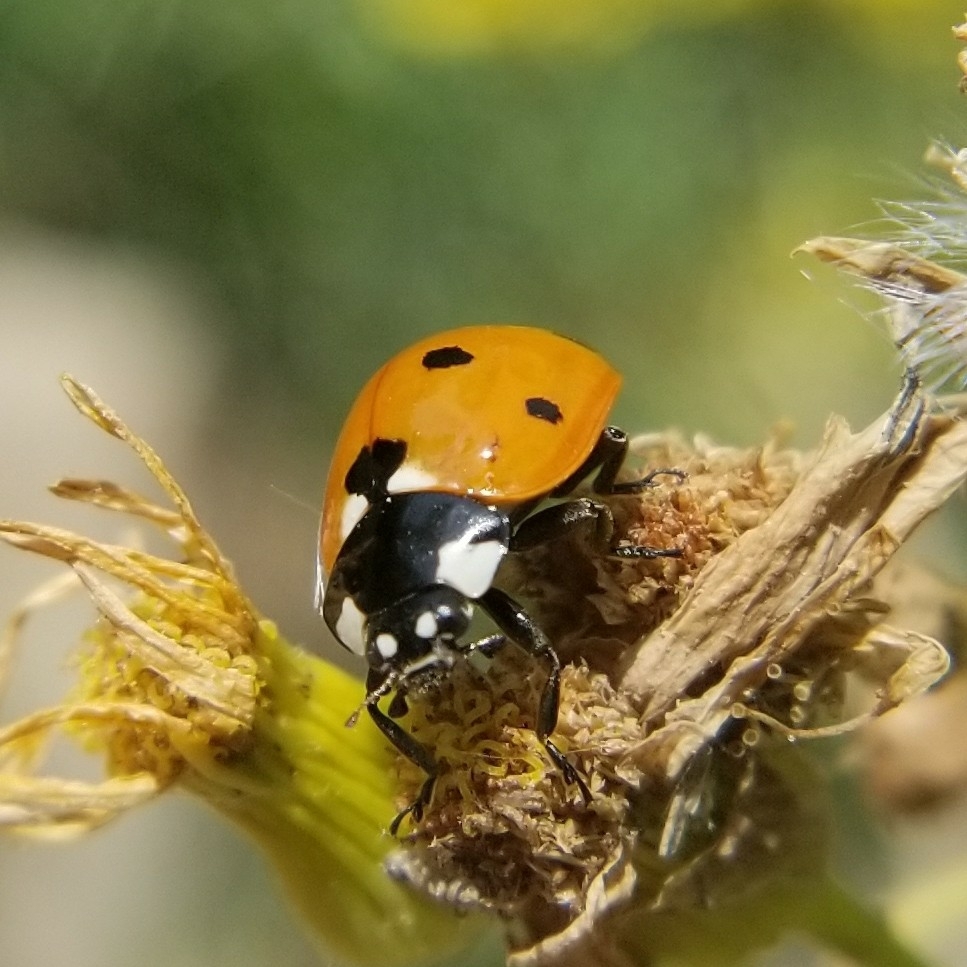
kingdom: Animalia
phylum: Arthropoda
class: Insecta
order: Coleoptera
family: Coccinellidae
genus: Coccinella
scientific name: Coccinella septempunctata
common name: Sevenspotted lady beetle
